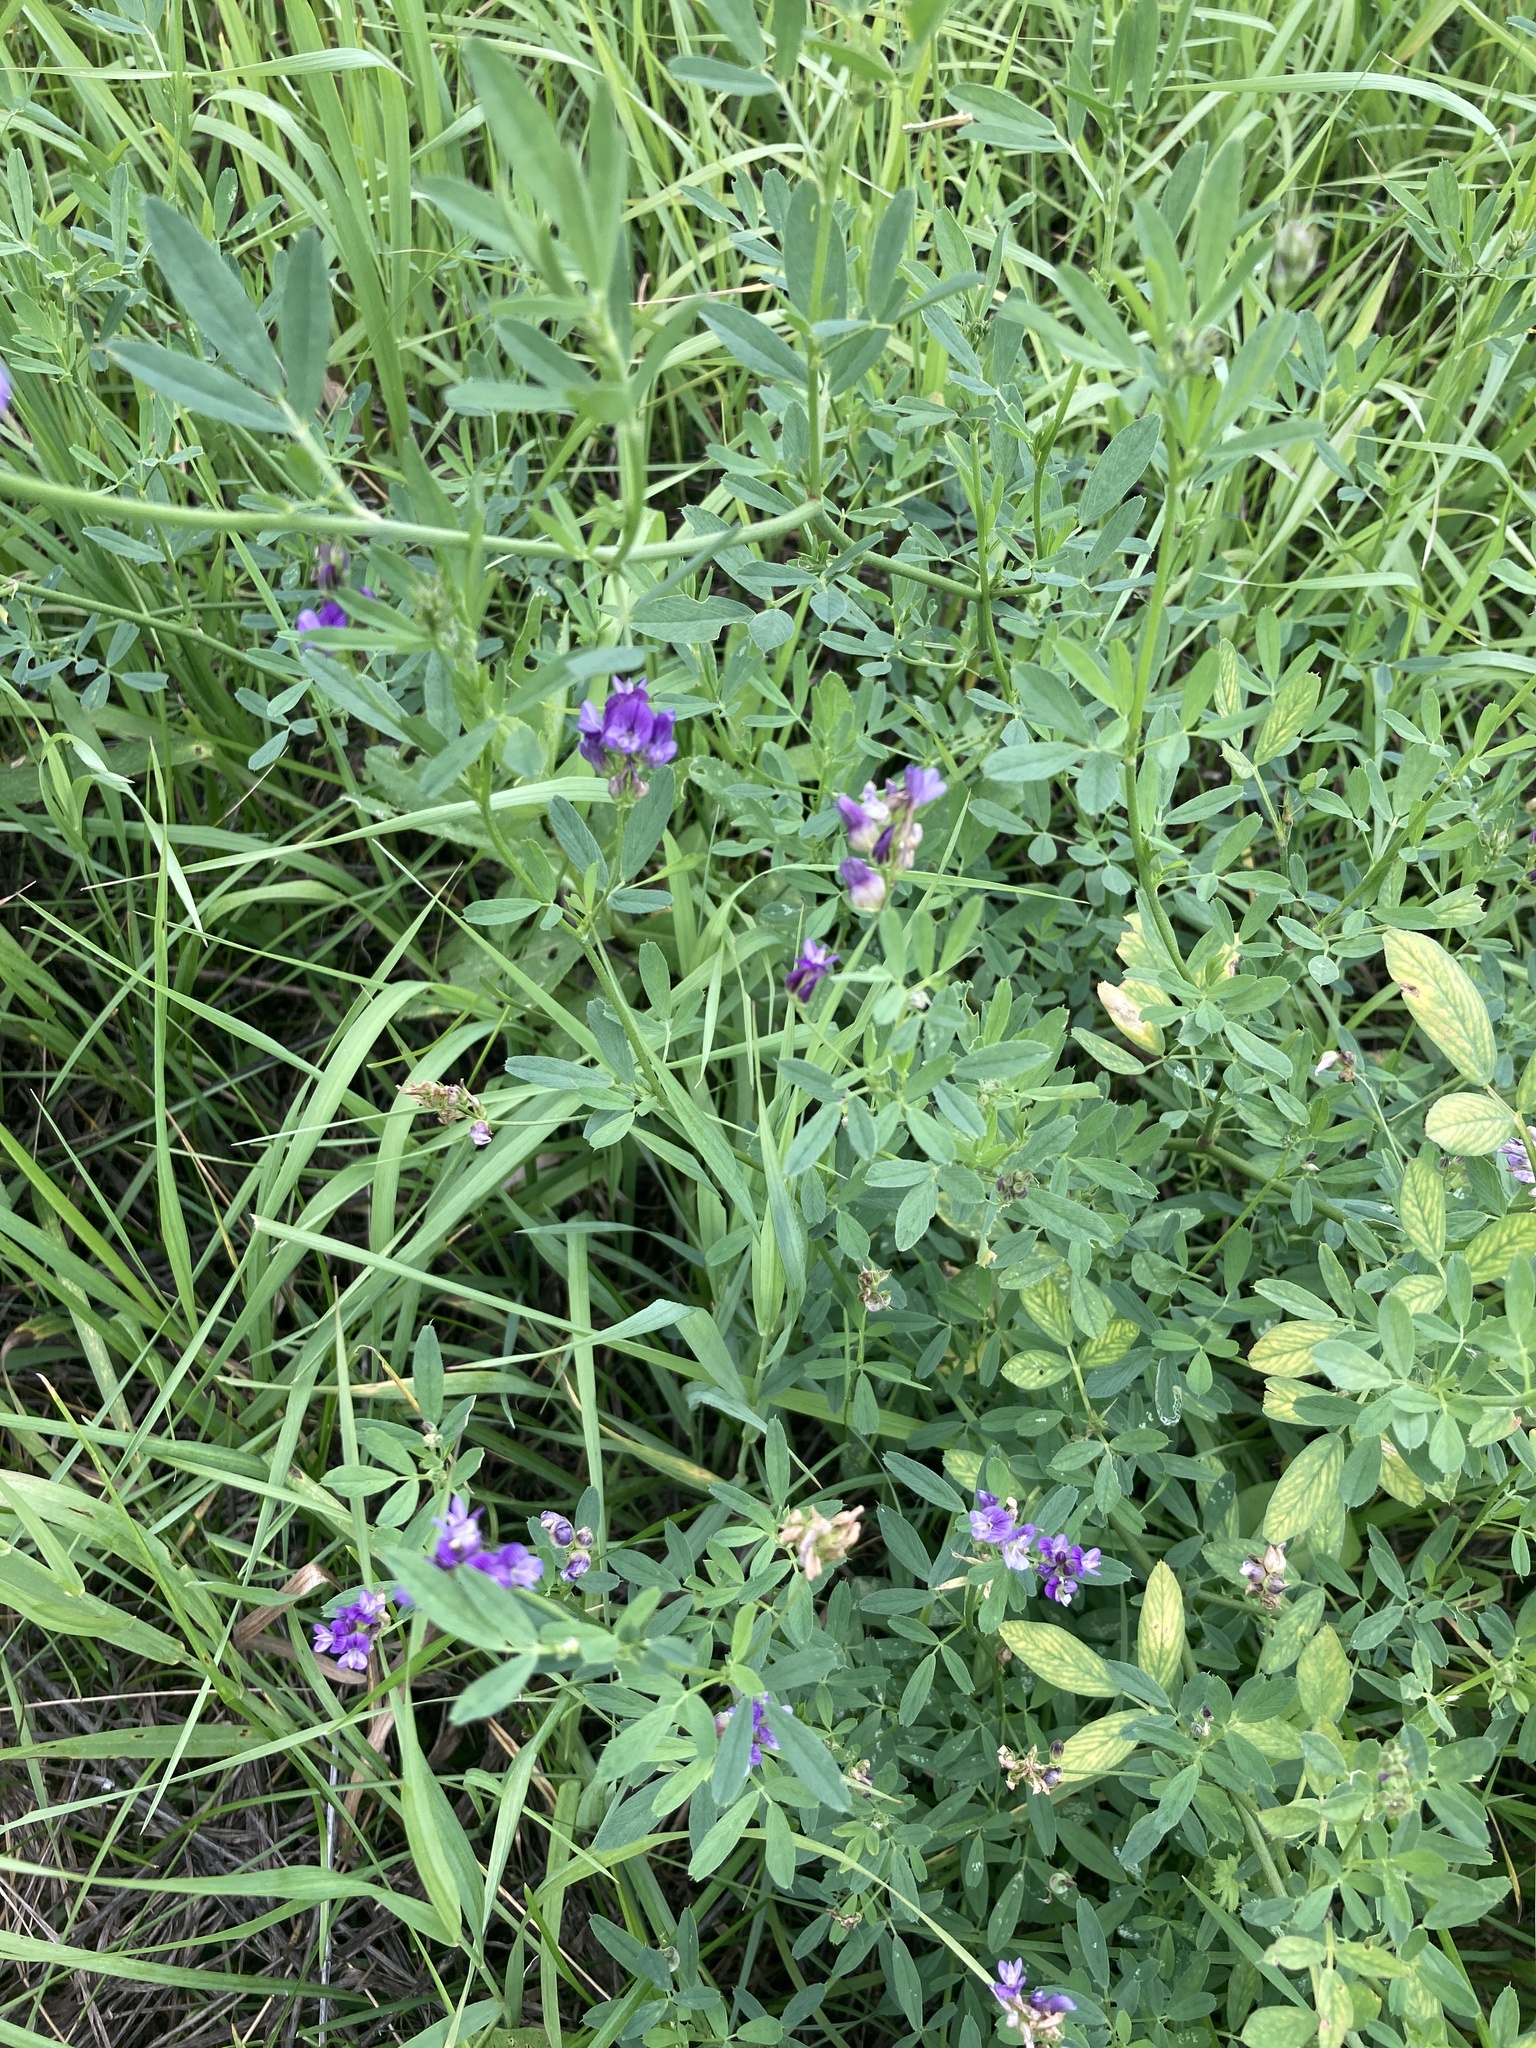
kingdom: Plantae
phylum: Tracheophyta
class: Magnoliopsida
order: Fabales
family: Fabaceae
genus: Medicago
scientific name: Medicago varia
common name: Sand lucerne
